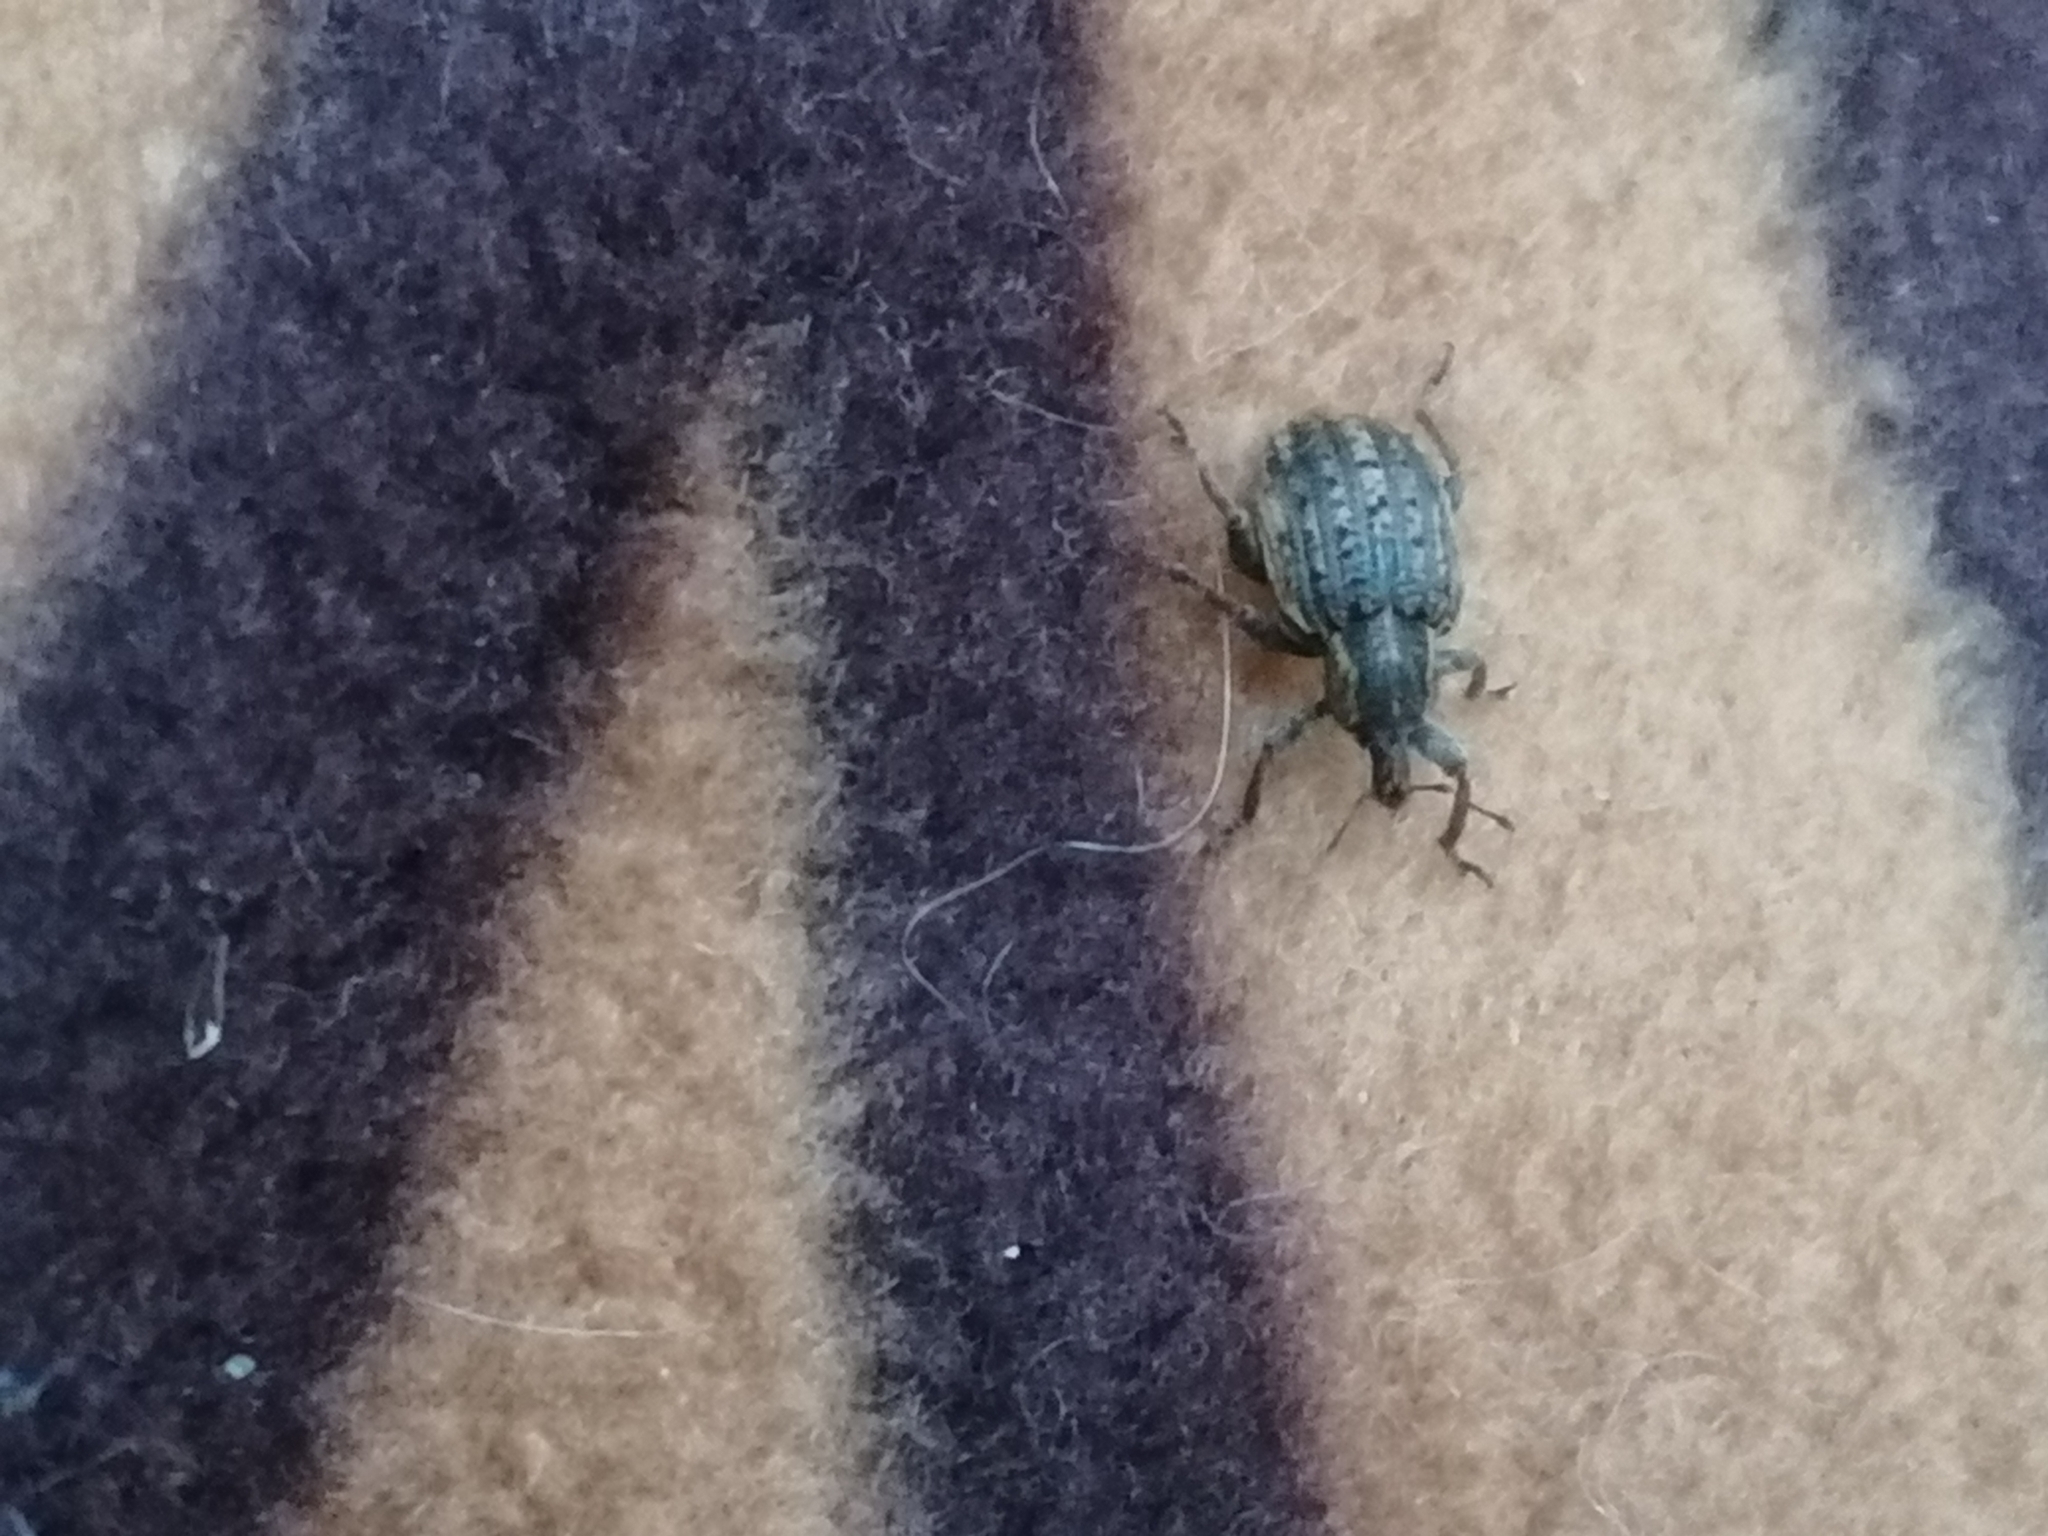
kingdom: Animalia
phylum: Arthropoda
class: Insecta
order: Coleoptera
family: Curculionidae
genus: Brachypera
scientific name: Brachypera zoilus
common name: Clover leaf weevil
